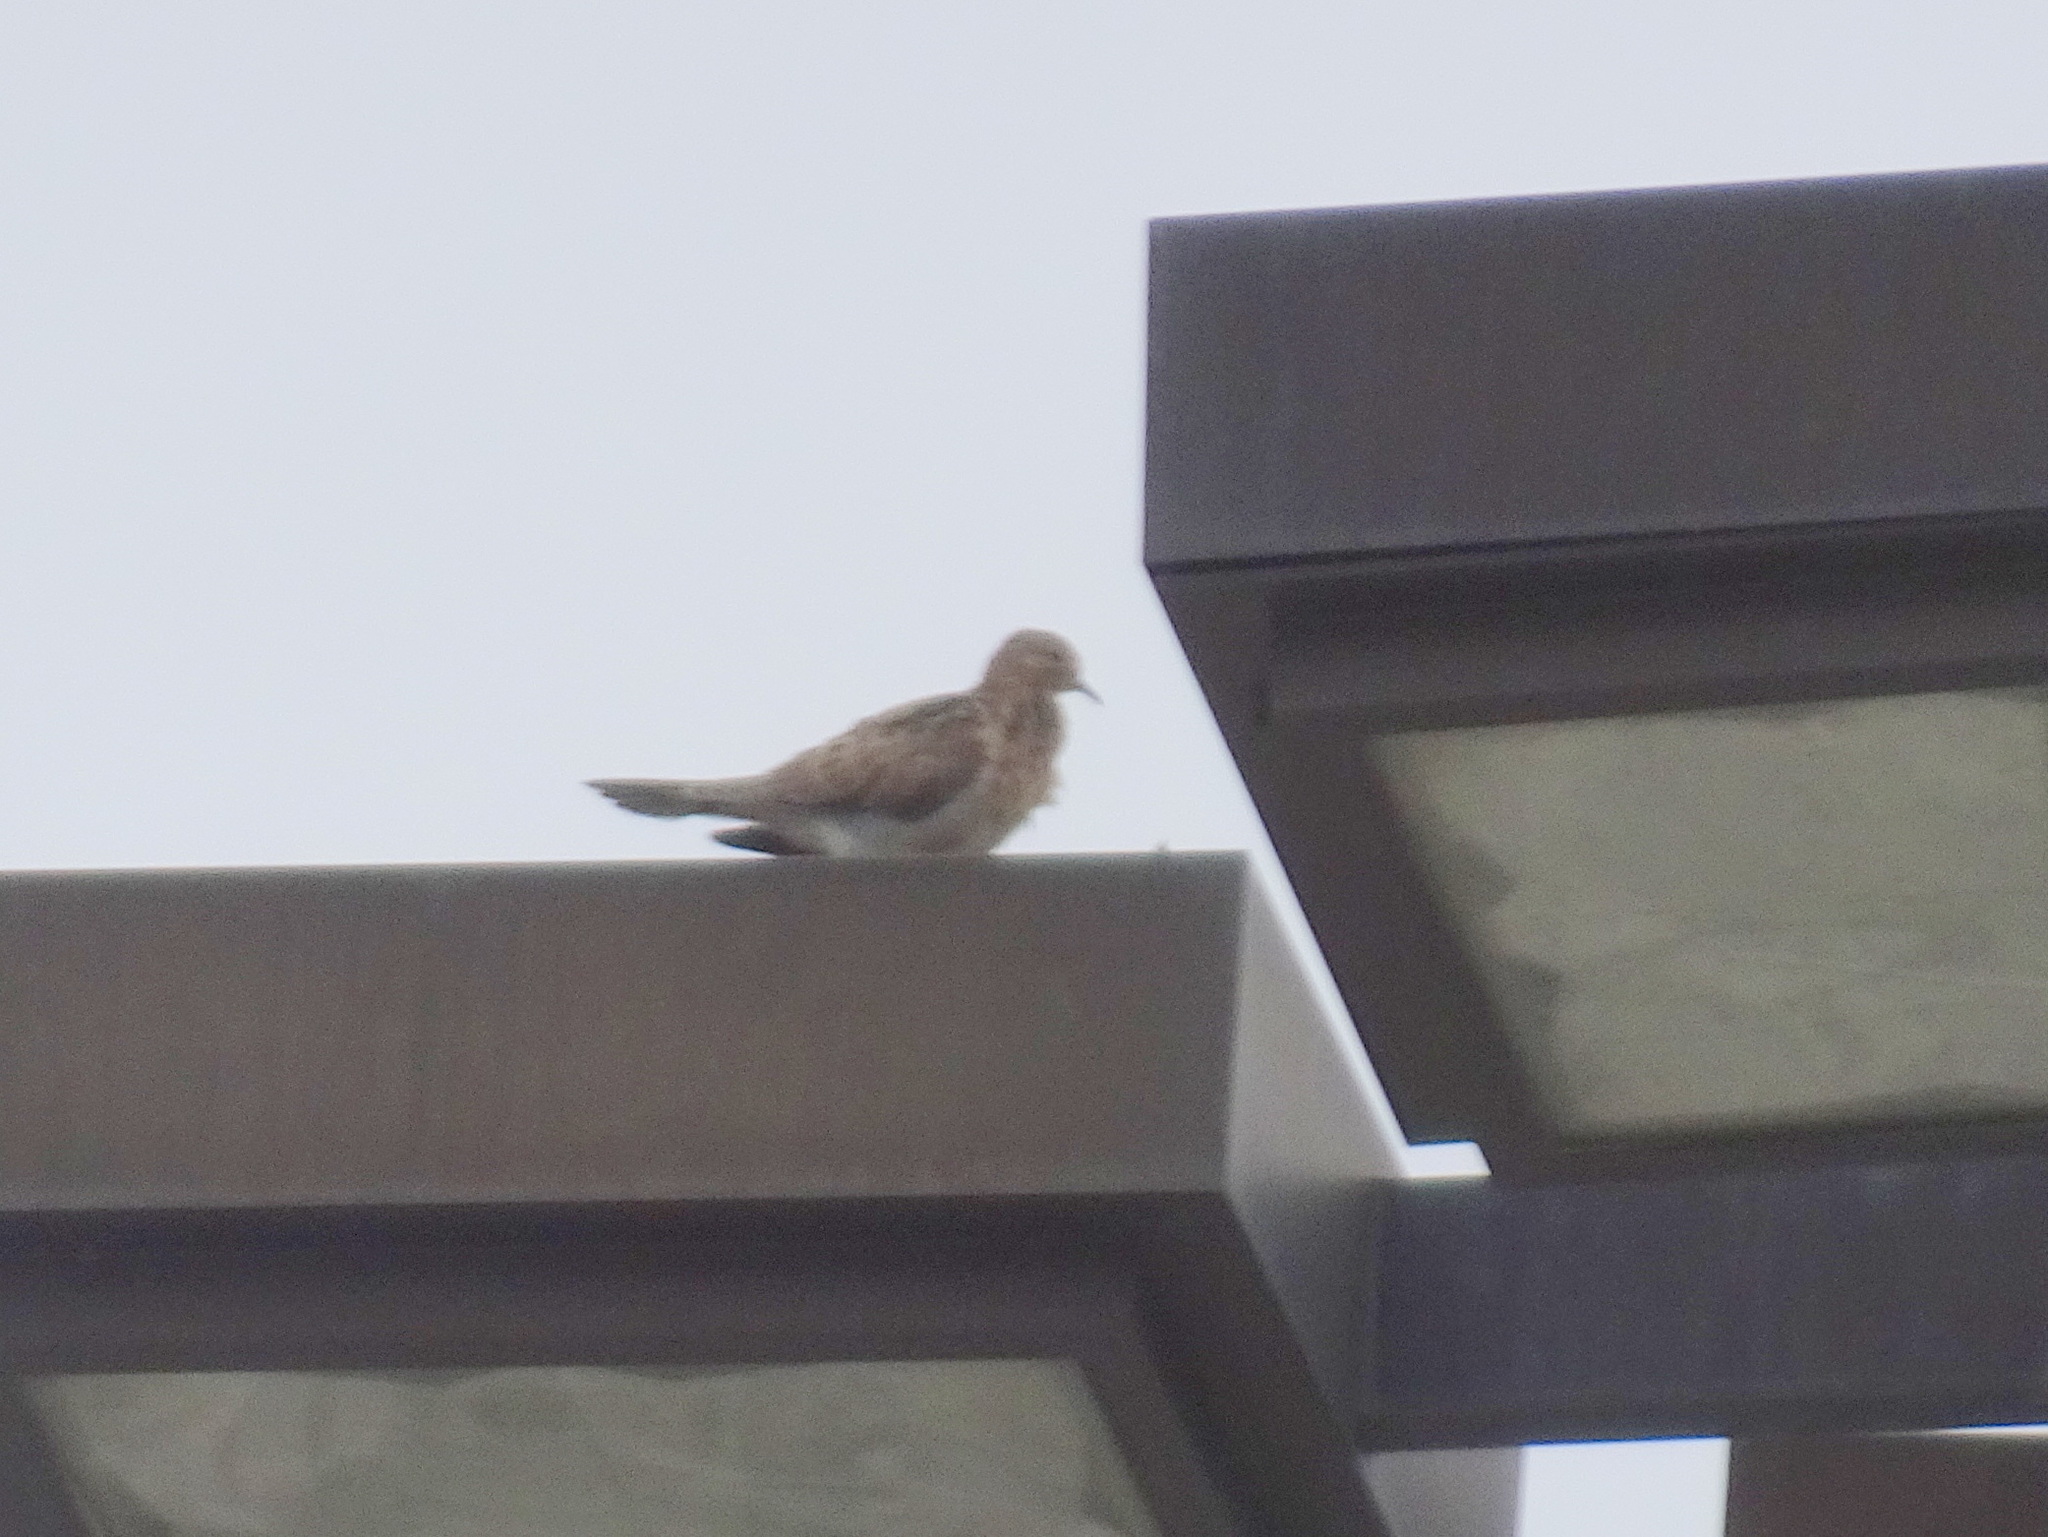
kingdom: Animalia
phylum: Chordata
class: Aves
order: Columbiformes
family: Columbidae
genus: Zenaida
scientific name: Zenaida macroura
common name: Mourning dove
